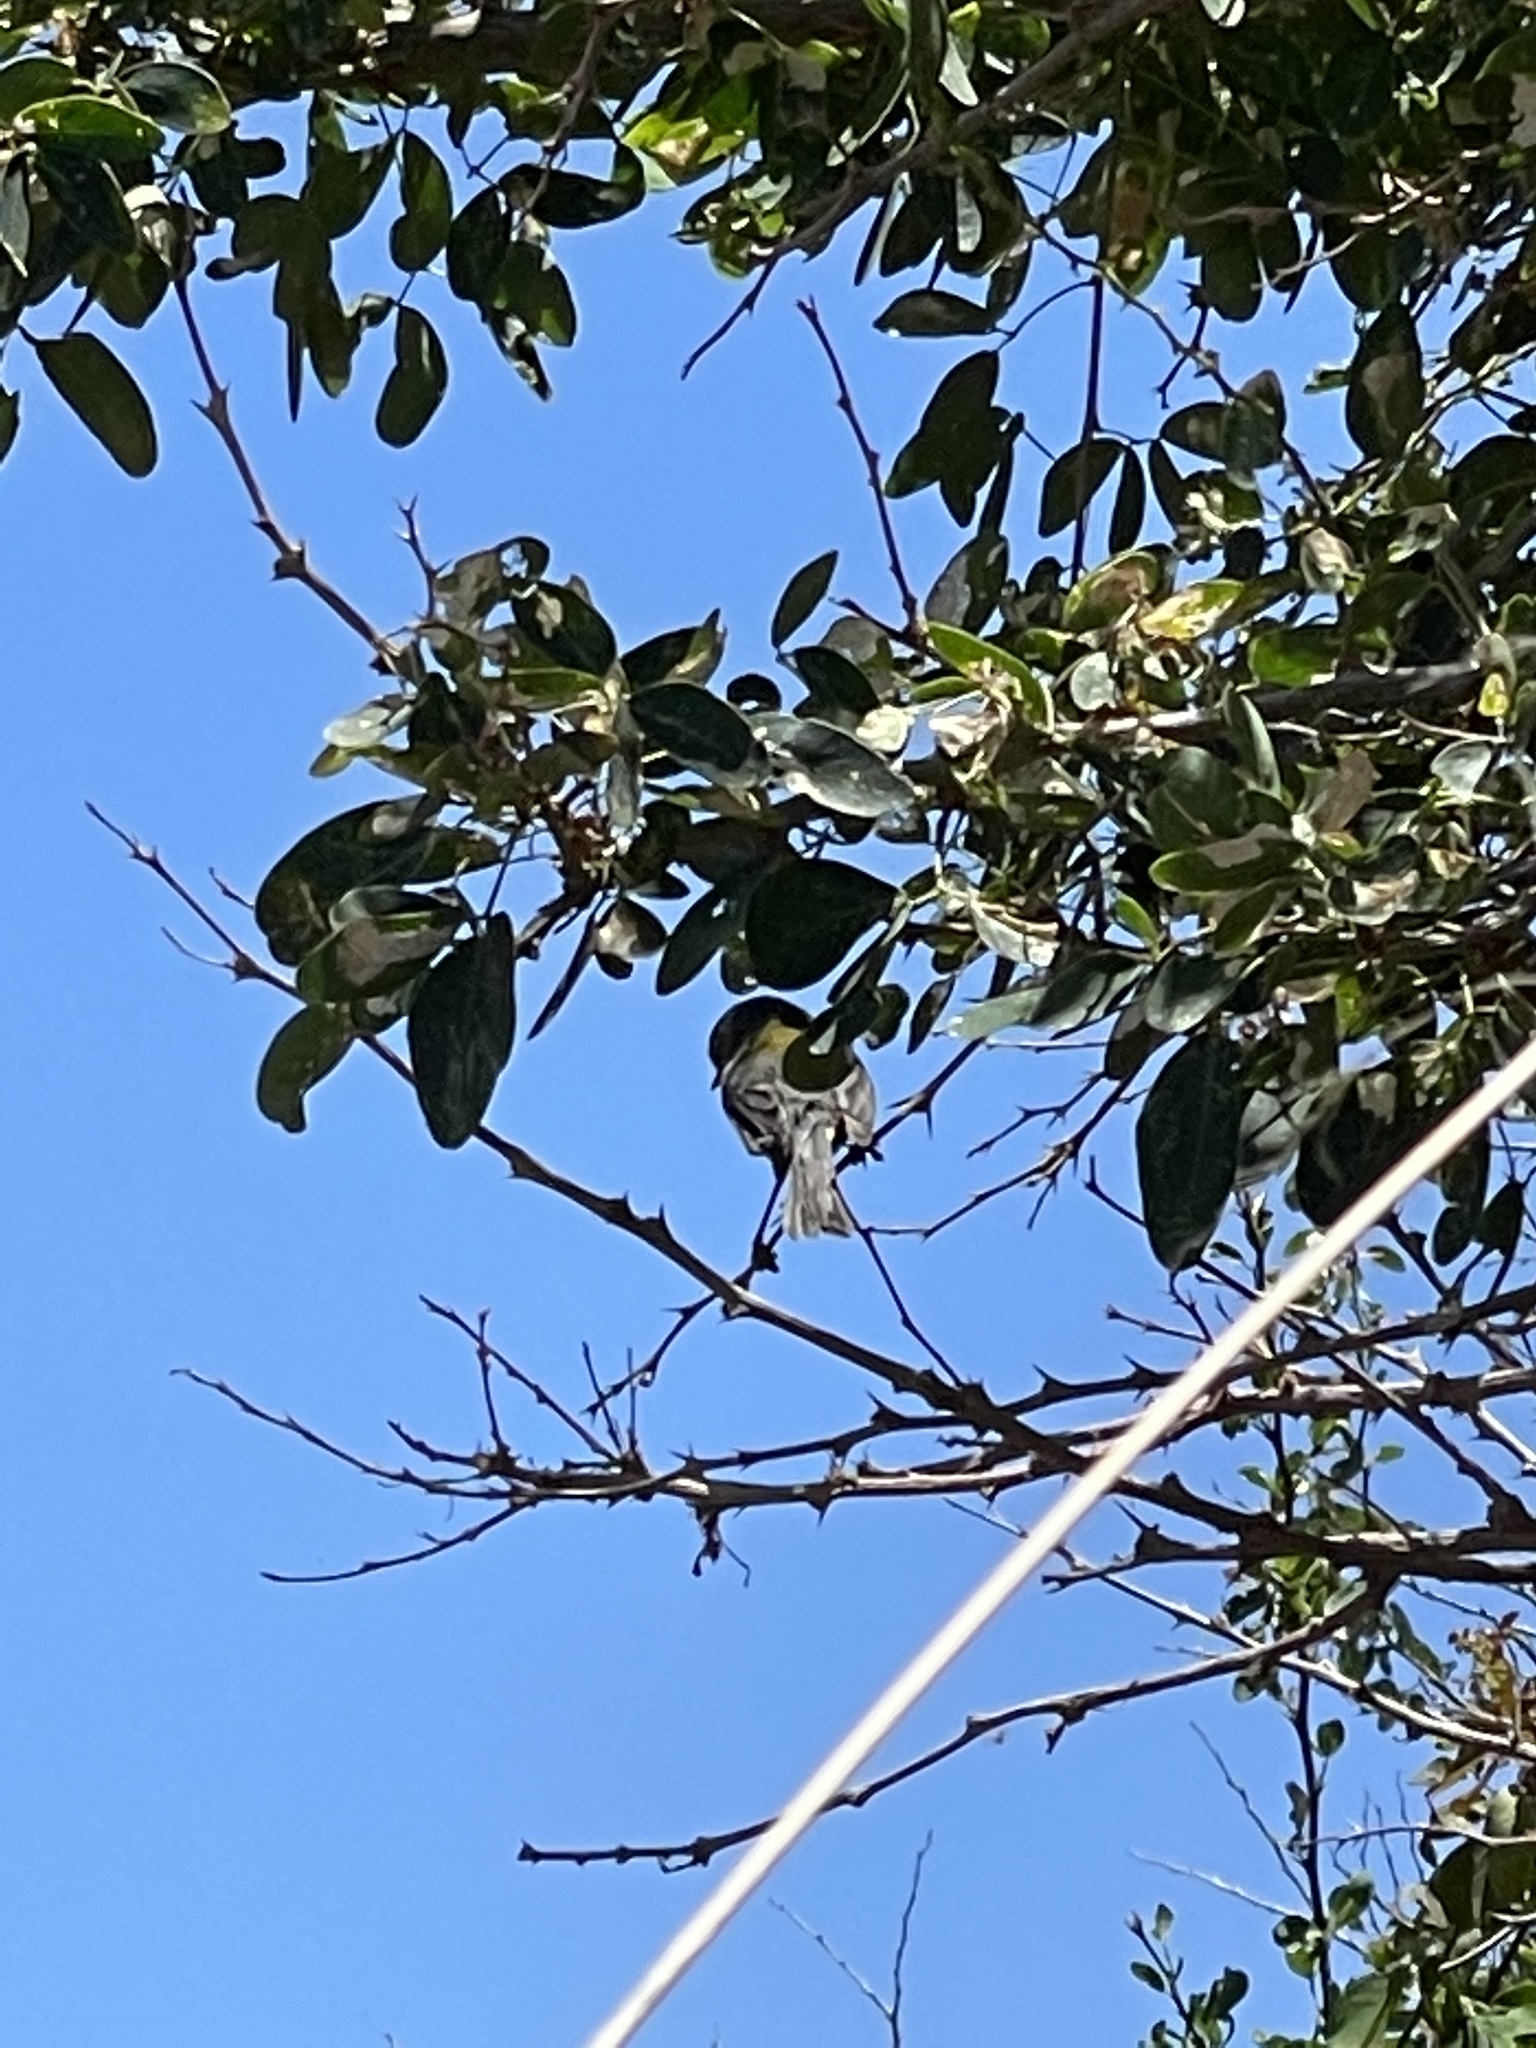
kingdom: Animalia
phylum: Chordata
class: Aves
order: Passeriformes
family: Parulidae
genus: Setophaga
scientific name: Setophaga pitiayumi
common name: Tropical parula
